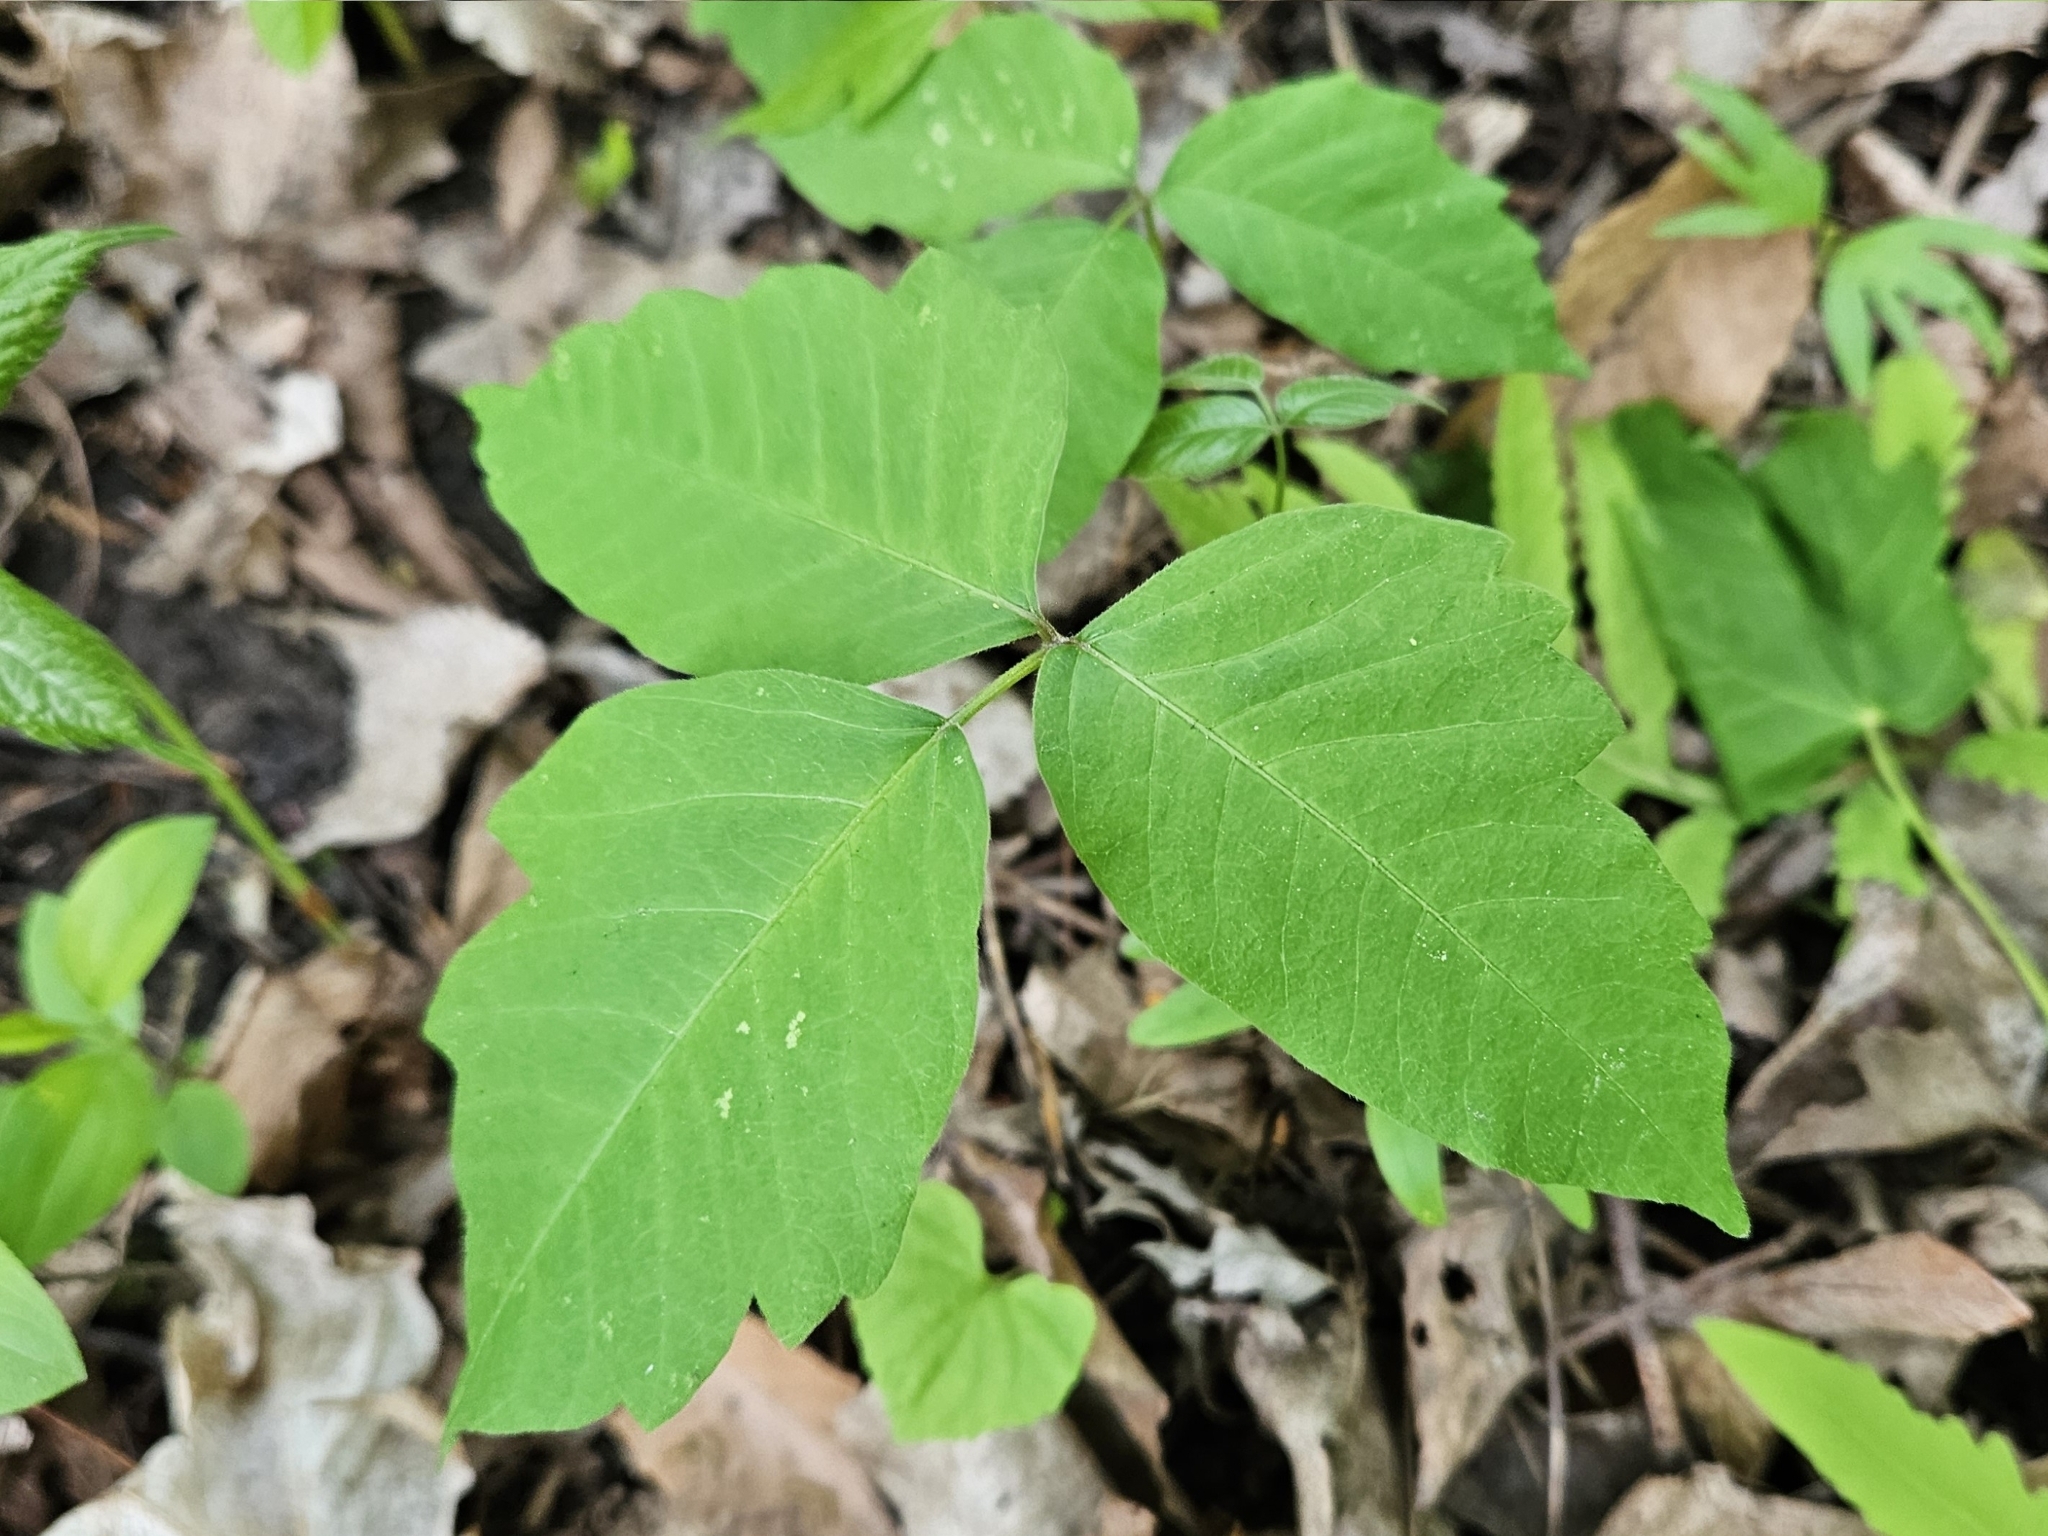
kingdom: Plantae
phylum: Tracheophyta
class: Magnoliopsida
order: Sapindales
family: Anacardiaceae
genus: Toxicodendron
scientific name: Toxicodendron radicans
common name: Poison ivy
